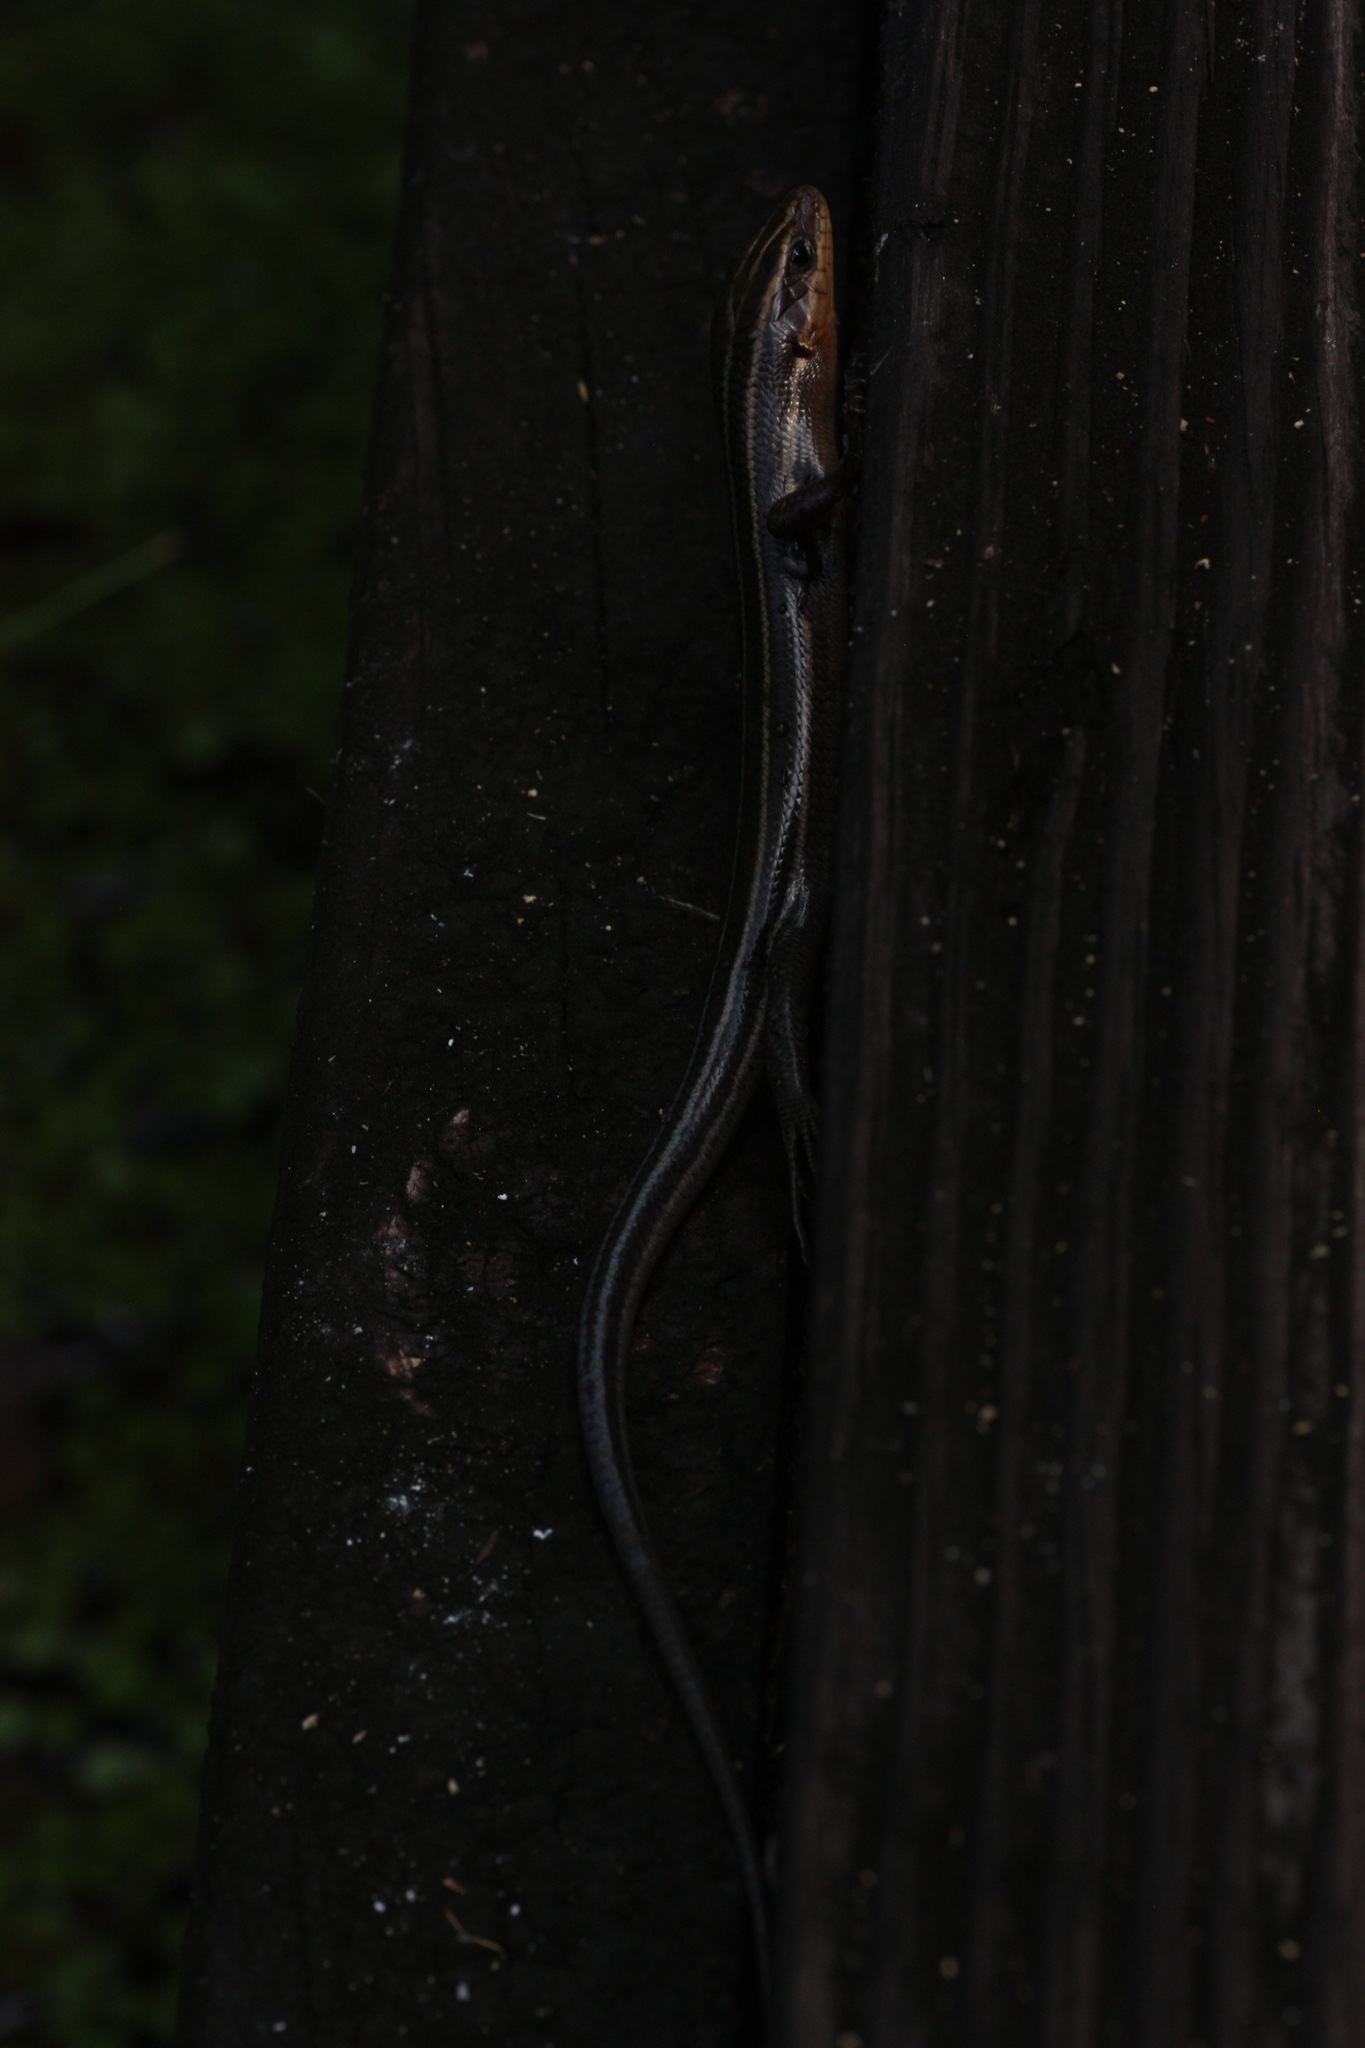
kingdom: Animalia
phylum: Chordata
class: Squamata
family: Scincidae
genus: Plestiodon
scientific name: Plestiodon fasciatus
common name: Five-lined skink
